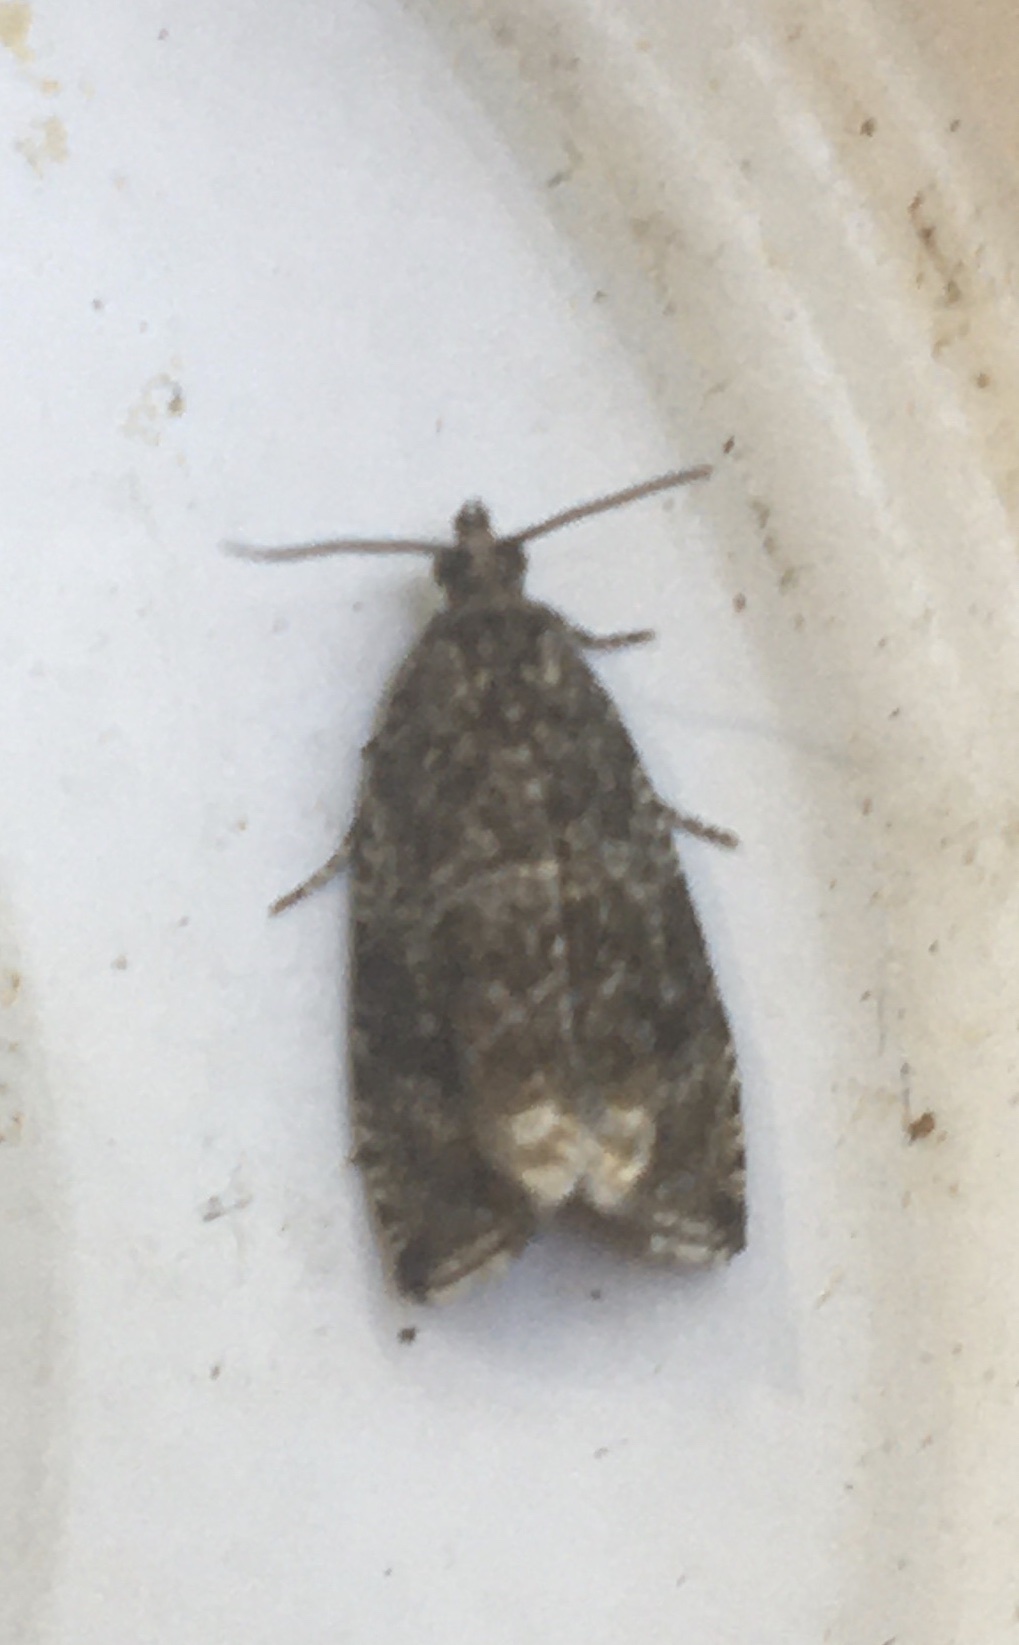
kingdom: Animalia
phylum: Arthropoda
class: Insecta
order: Lepidoptera
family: Tortricidae
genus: Syricoris
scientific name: Syricoris lacunana
